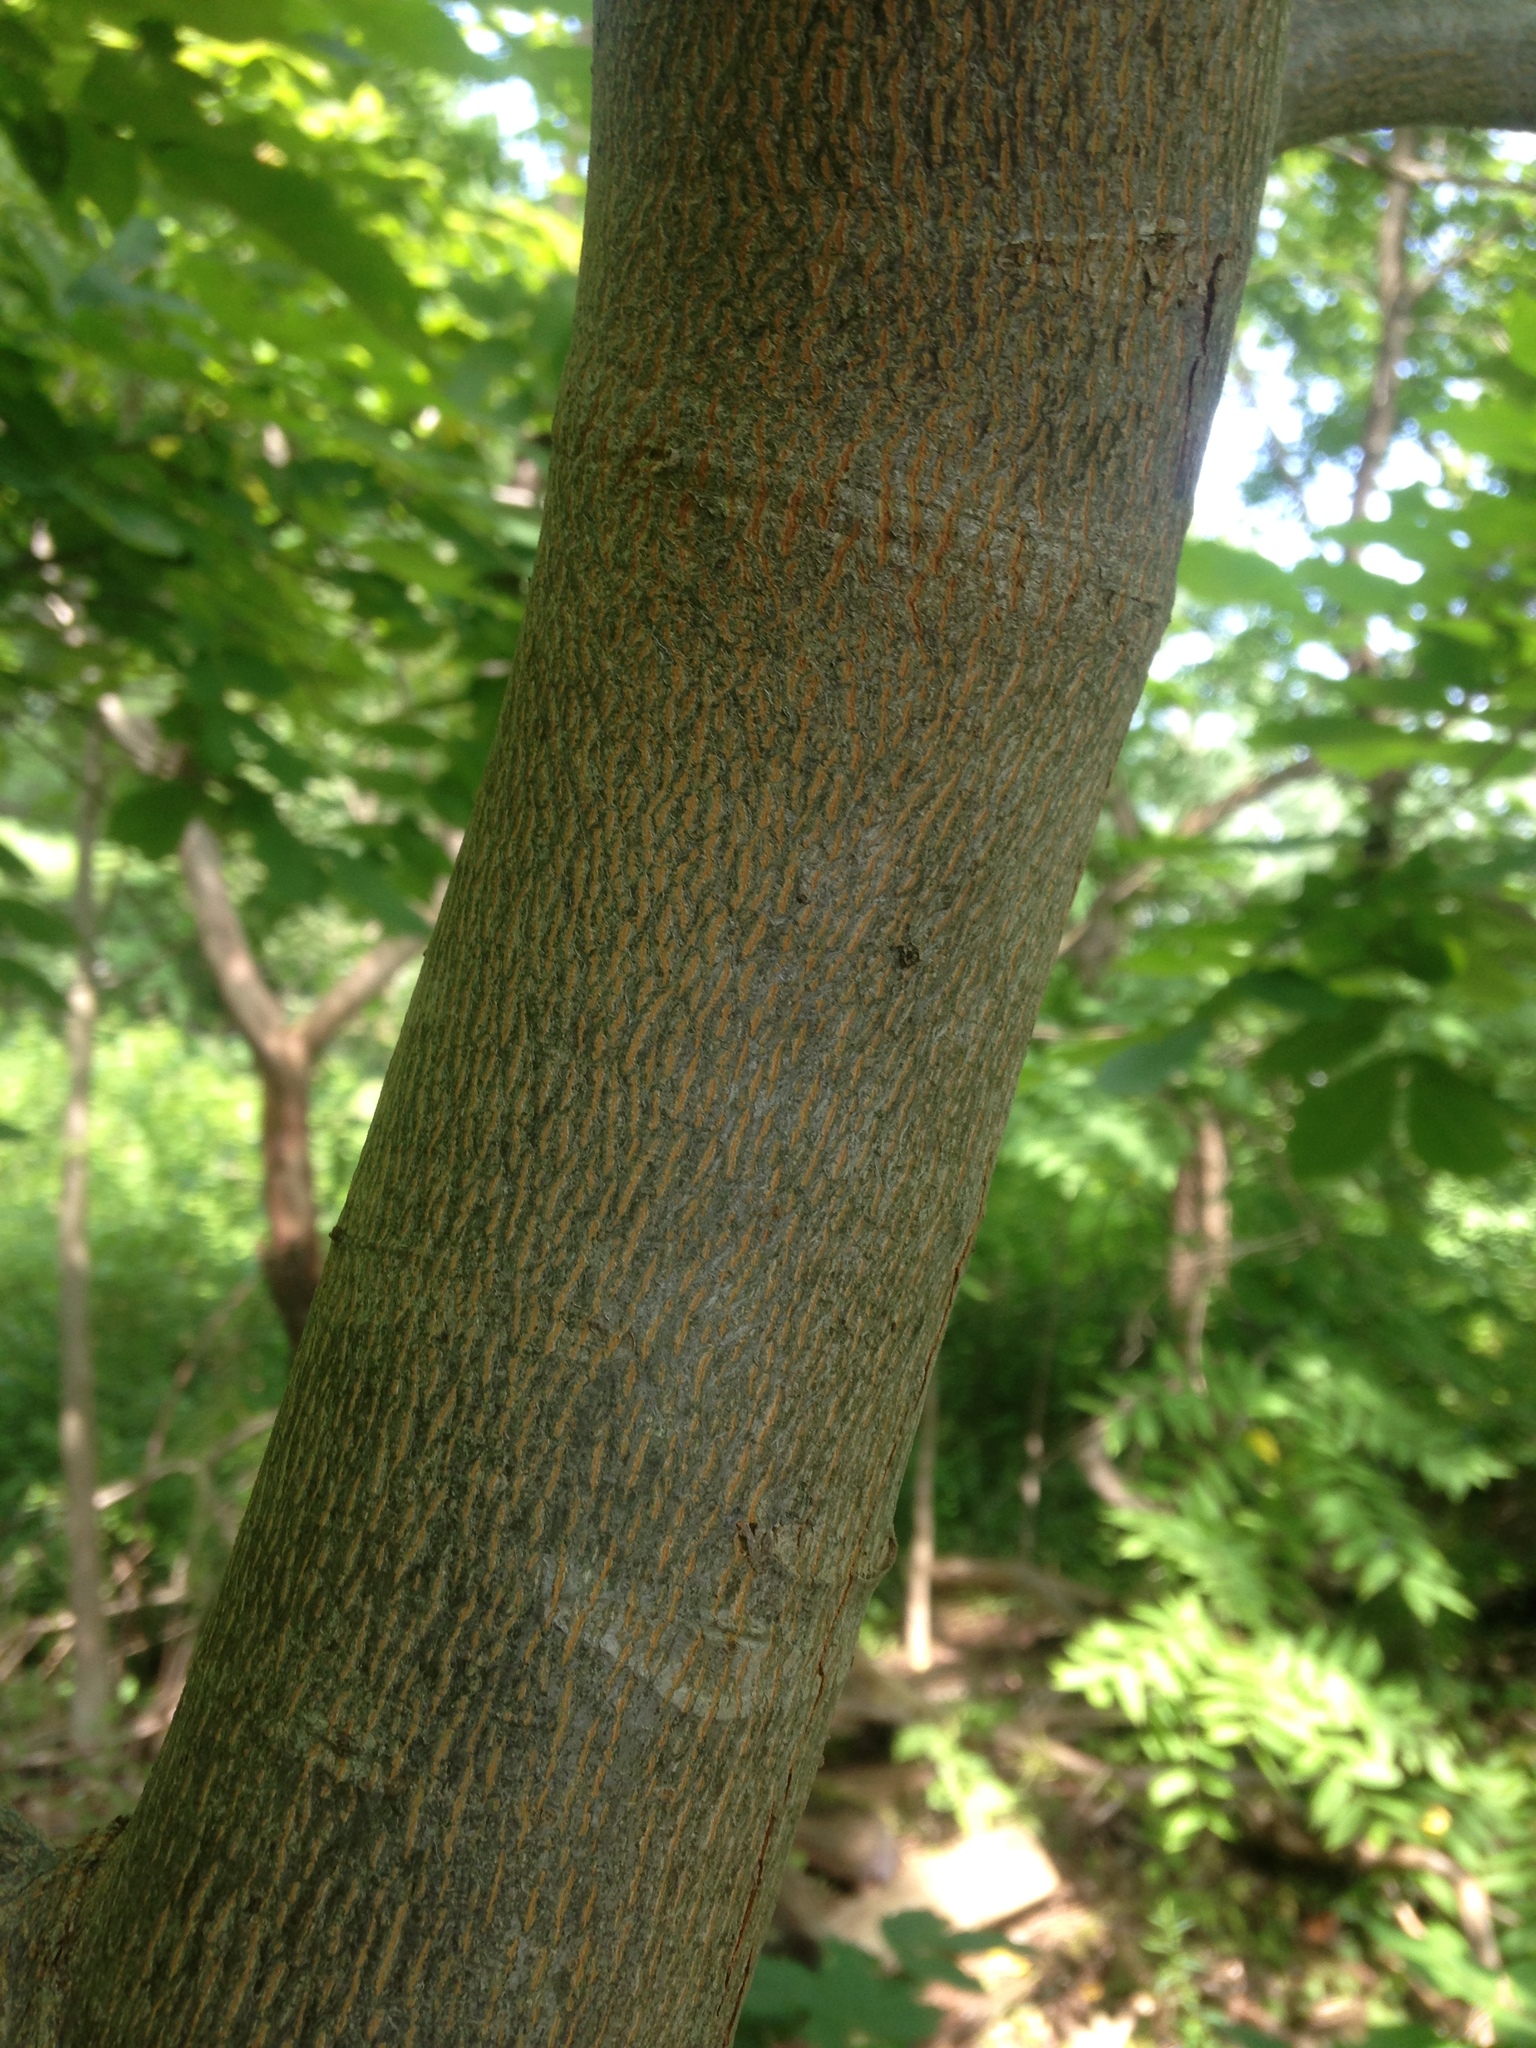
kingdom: Plantae
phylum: Tracheophyta
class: Magnoliopsida
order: Fagales
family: Juglandaceae
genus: Carya
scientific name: Carya cordiformis
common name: Bitternut hickory
